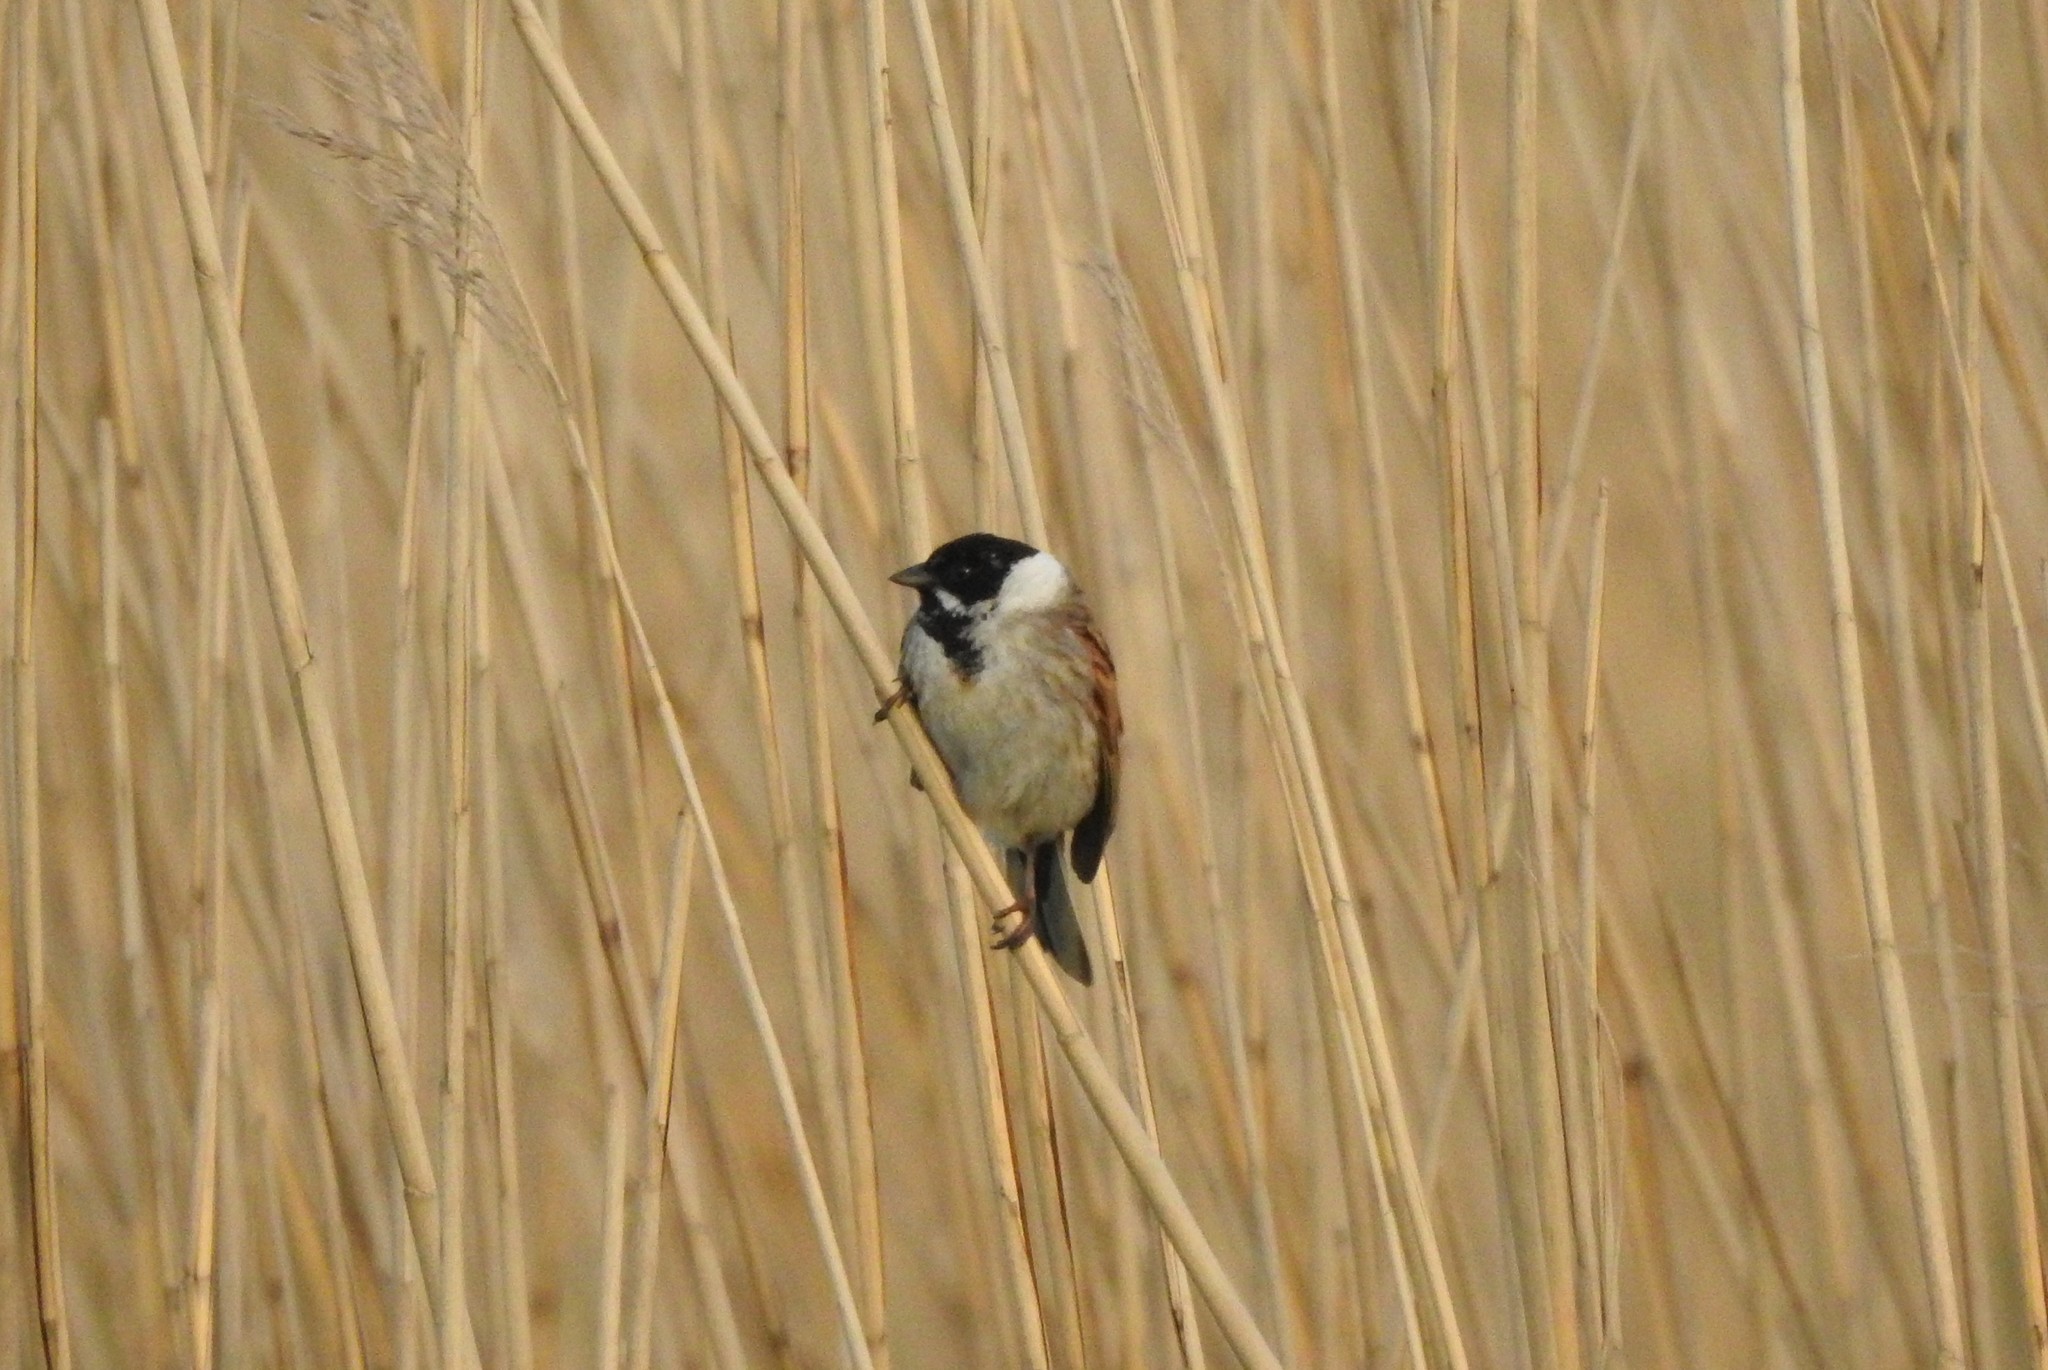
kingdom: Animalia
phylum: Chordata
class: Aves
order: Passeriformes
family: Emberizidae
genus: Emberiza
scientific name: Emberiza schoeniclus
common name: Reed bunting
